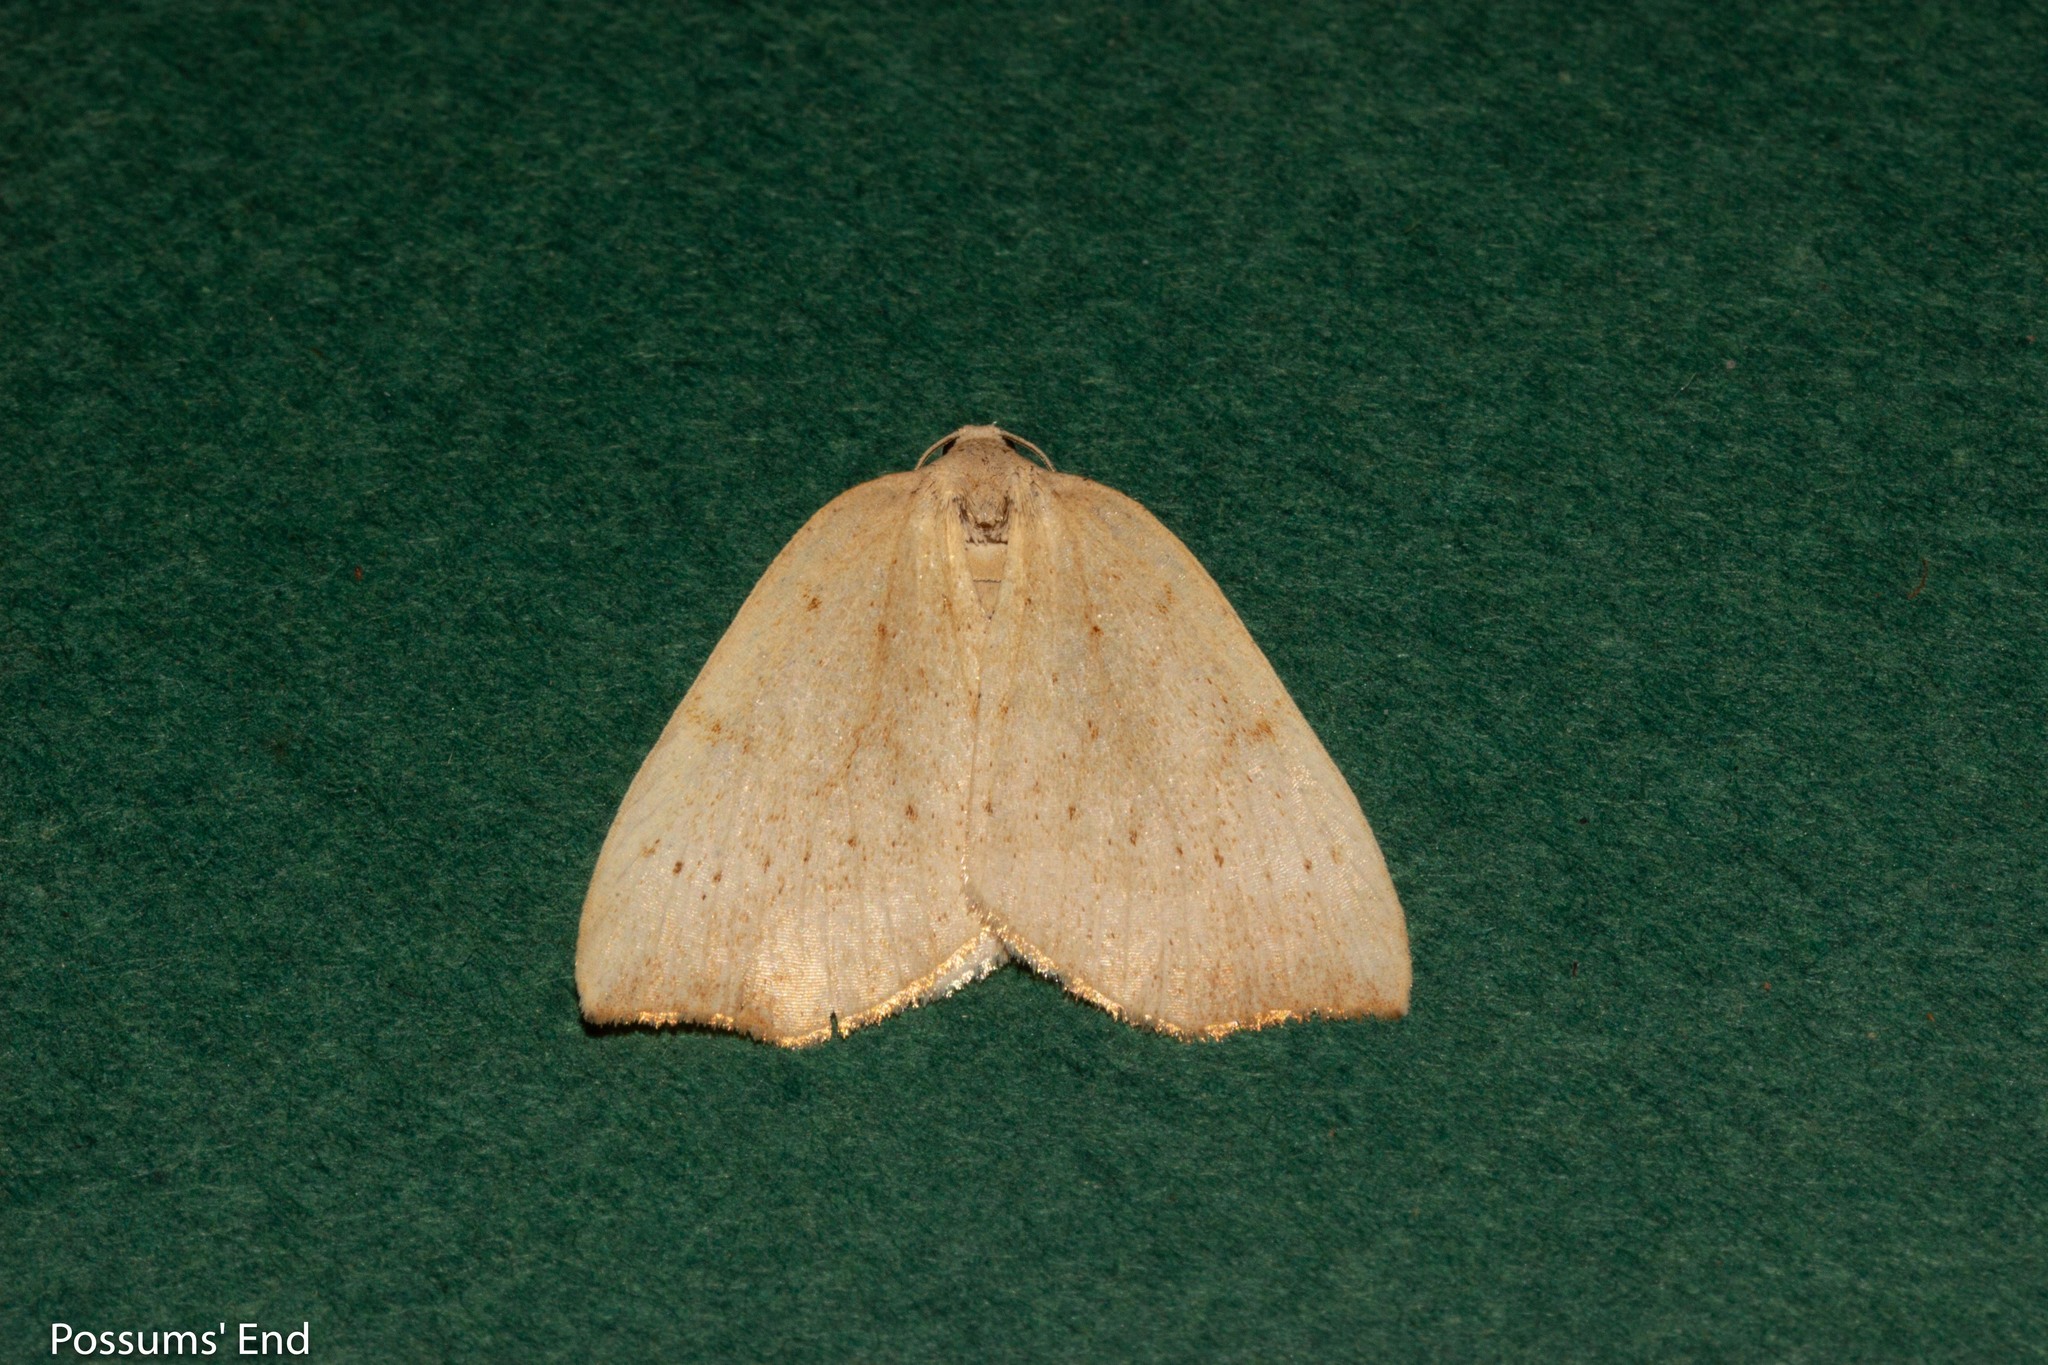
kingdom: Animalia
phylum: Arthropoda
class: Insecta
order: Lepidoptera
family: Geometridae
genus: Sestra
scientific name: Sestra humeraria
